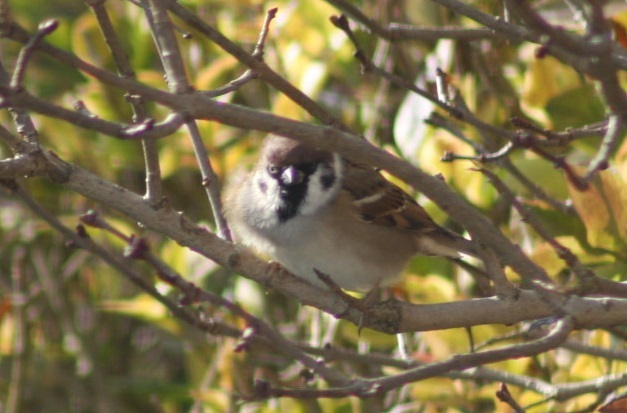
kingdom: Animalia
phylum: Chordata
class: Aves
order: Passeriformes
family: Passeridae
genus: Passer
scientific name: Passer montanus
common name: Eurasian tree sparrow
